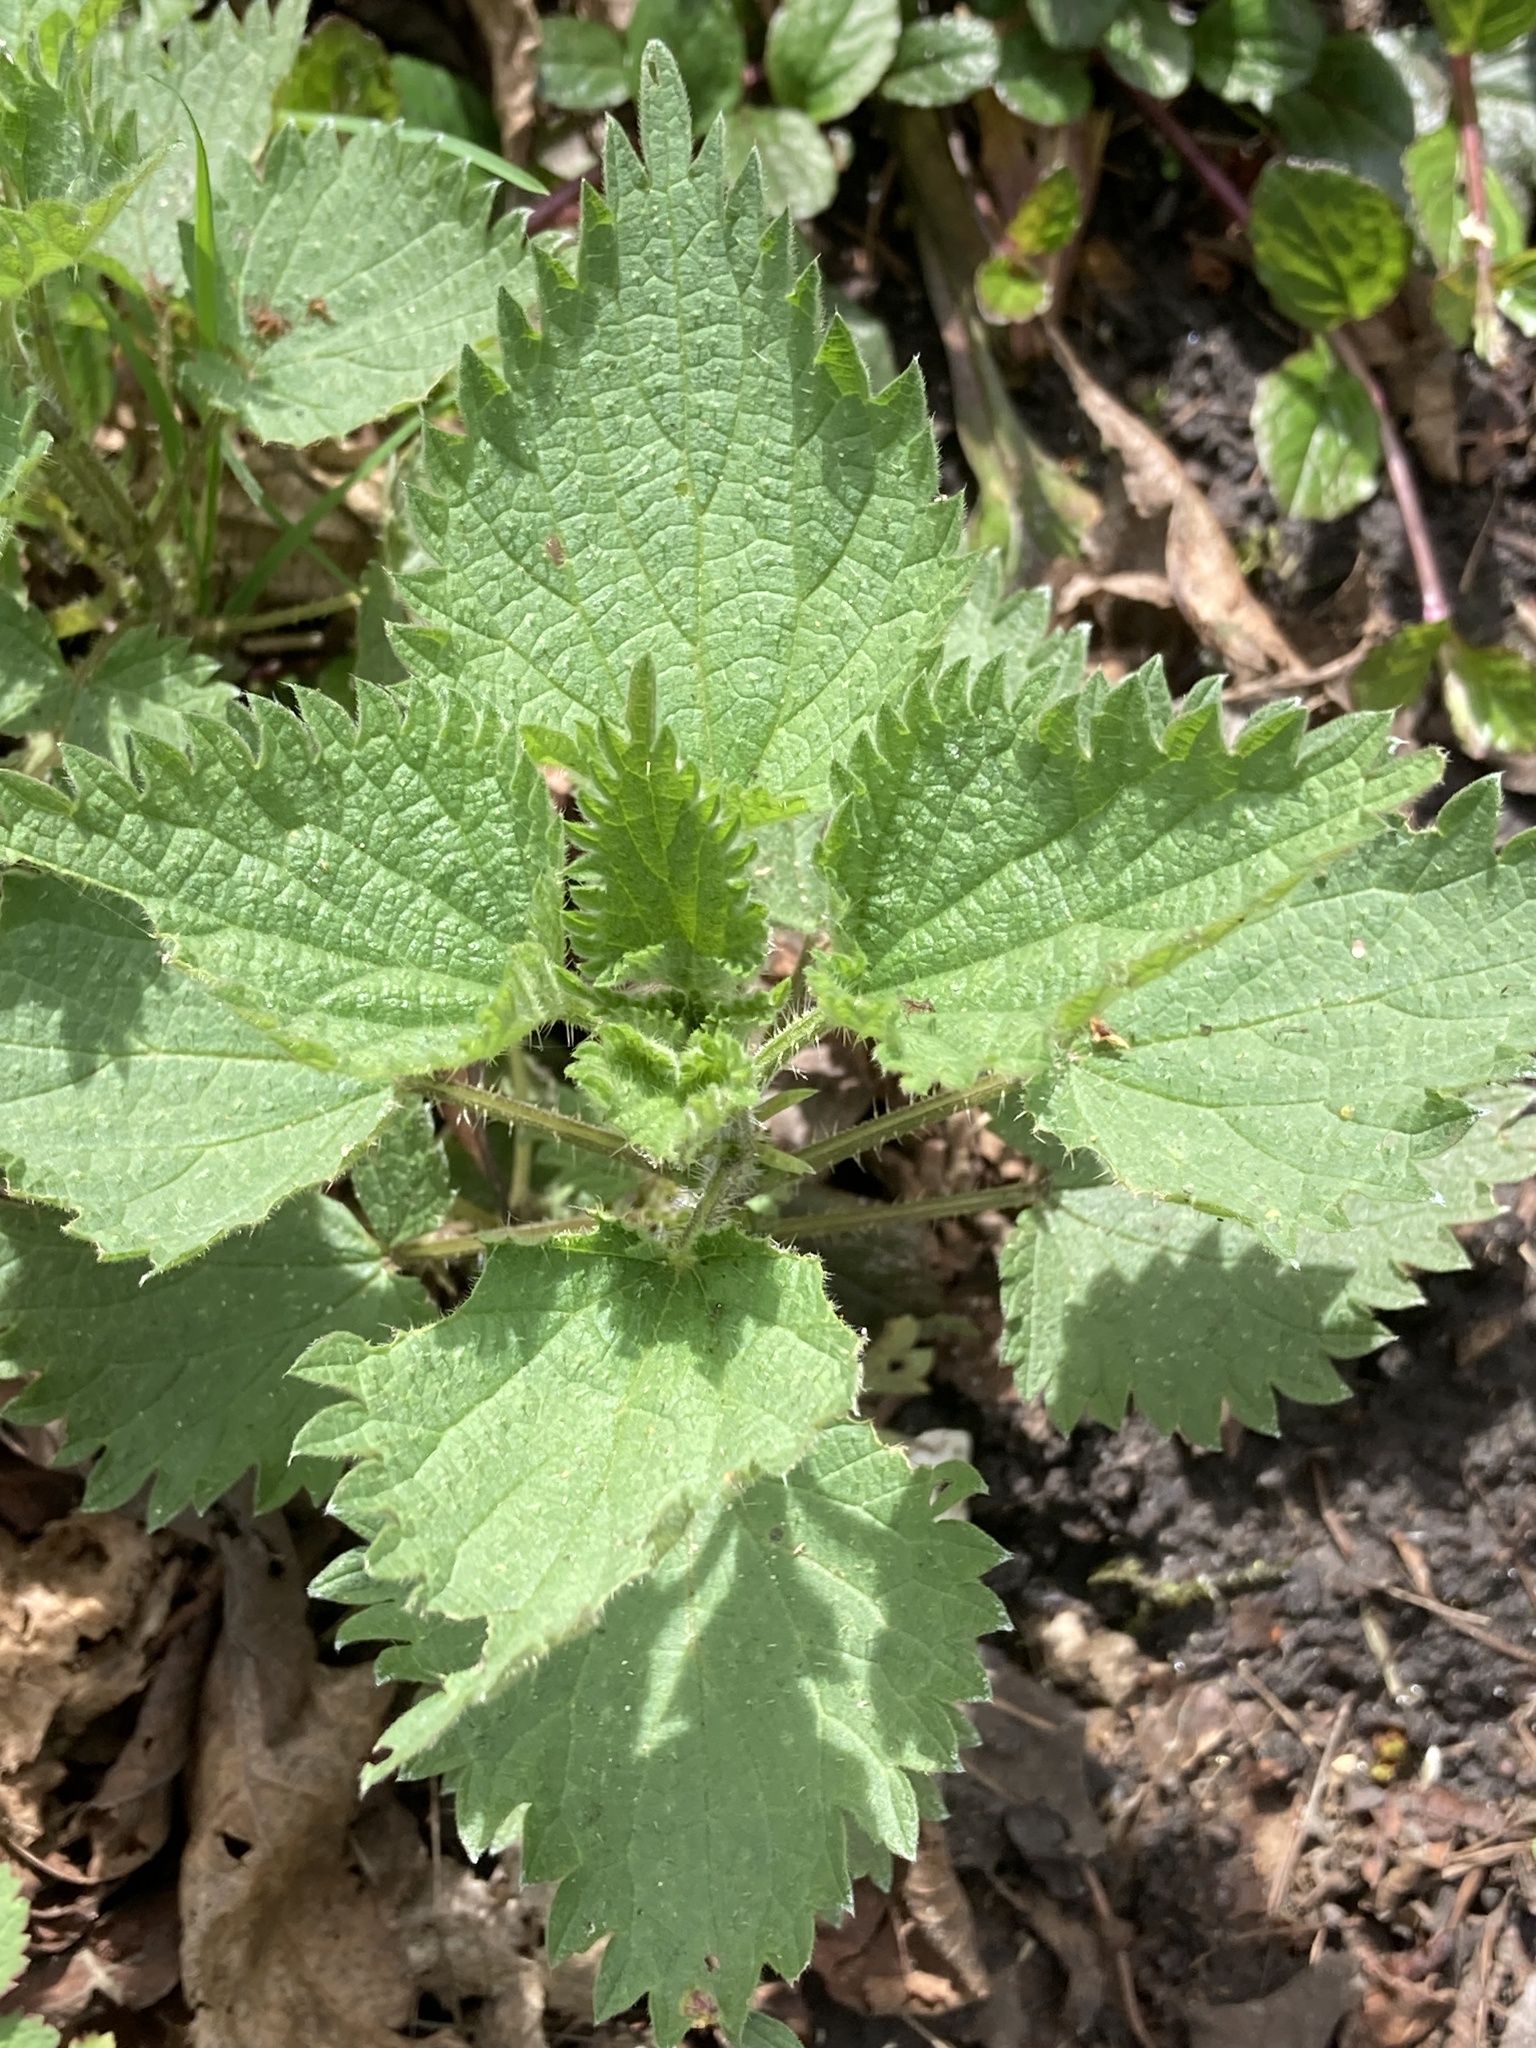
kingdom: Plantae
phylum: Tracheophyta
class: Magnoliopsida
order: Rosales
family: Urticaceae
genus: Urtica
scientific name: Urtica dioica
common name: Common nettle
